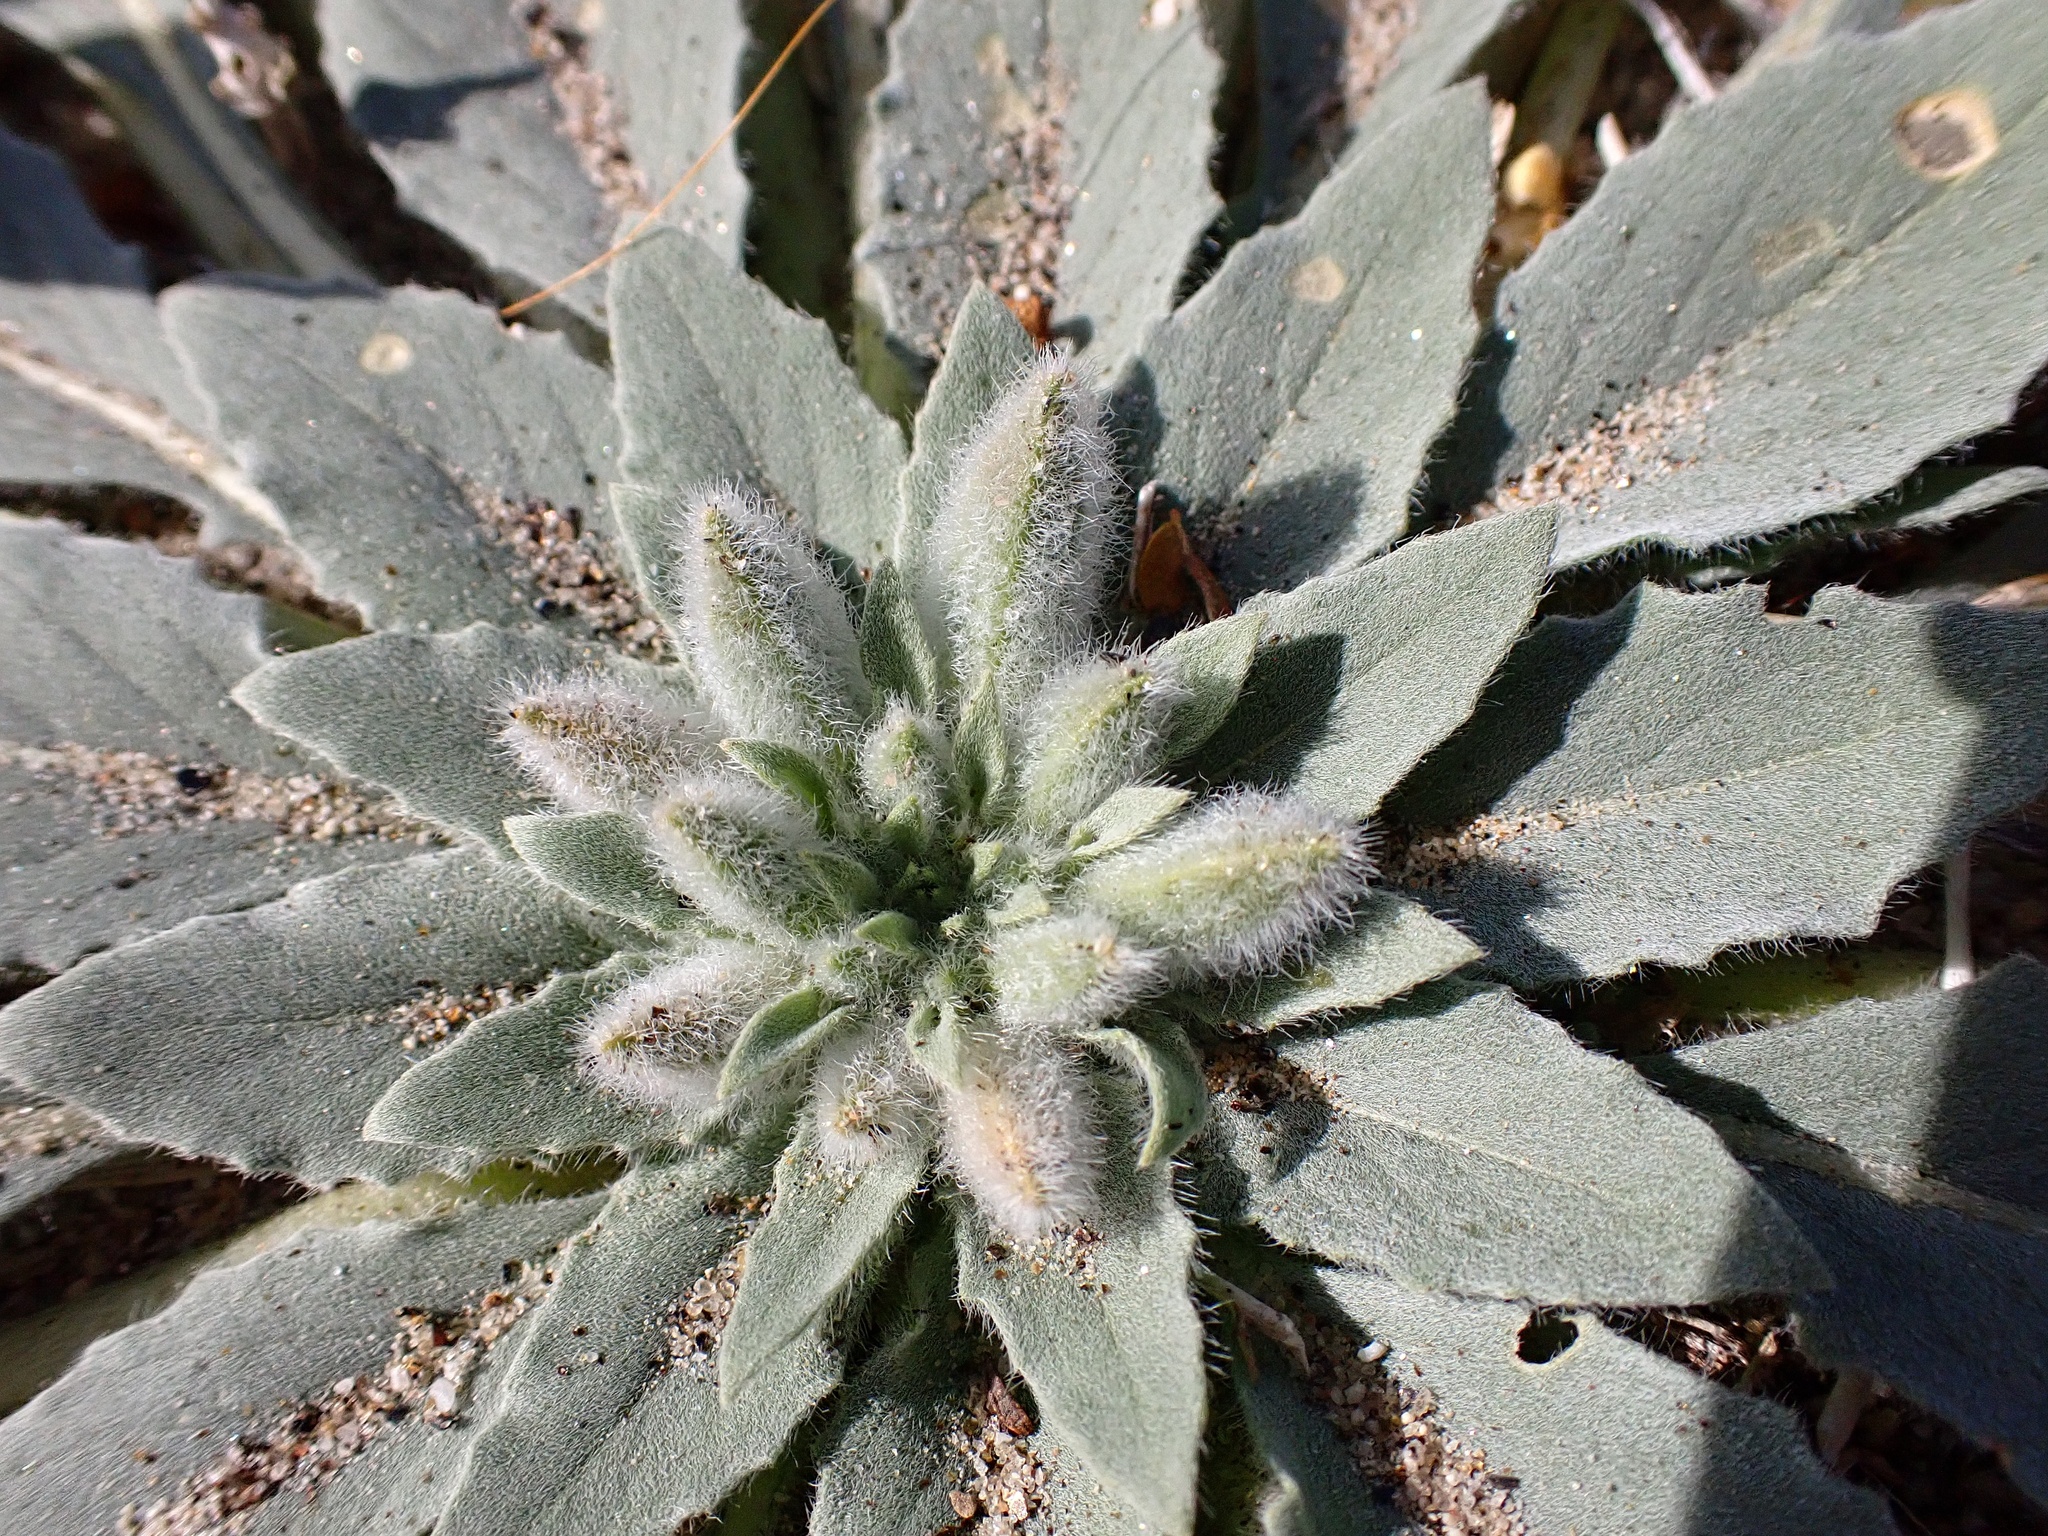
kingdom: Plantae
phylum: Tracheophyta
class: Magnoliopsida
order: Myrtales
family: Onagraceae
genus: Oenothera
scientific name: Oenothera deltoides
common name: Basket evening-primrose
